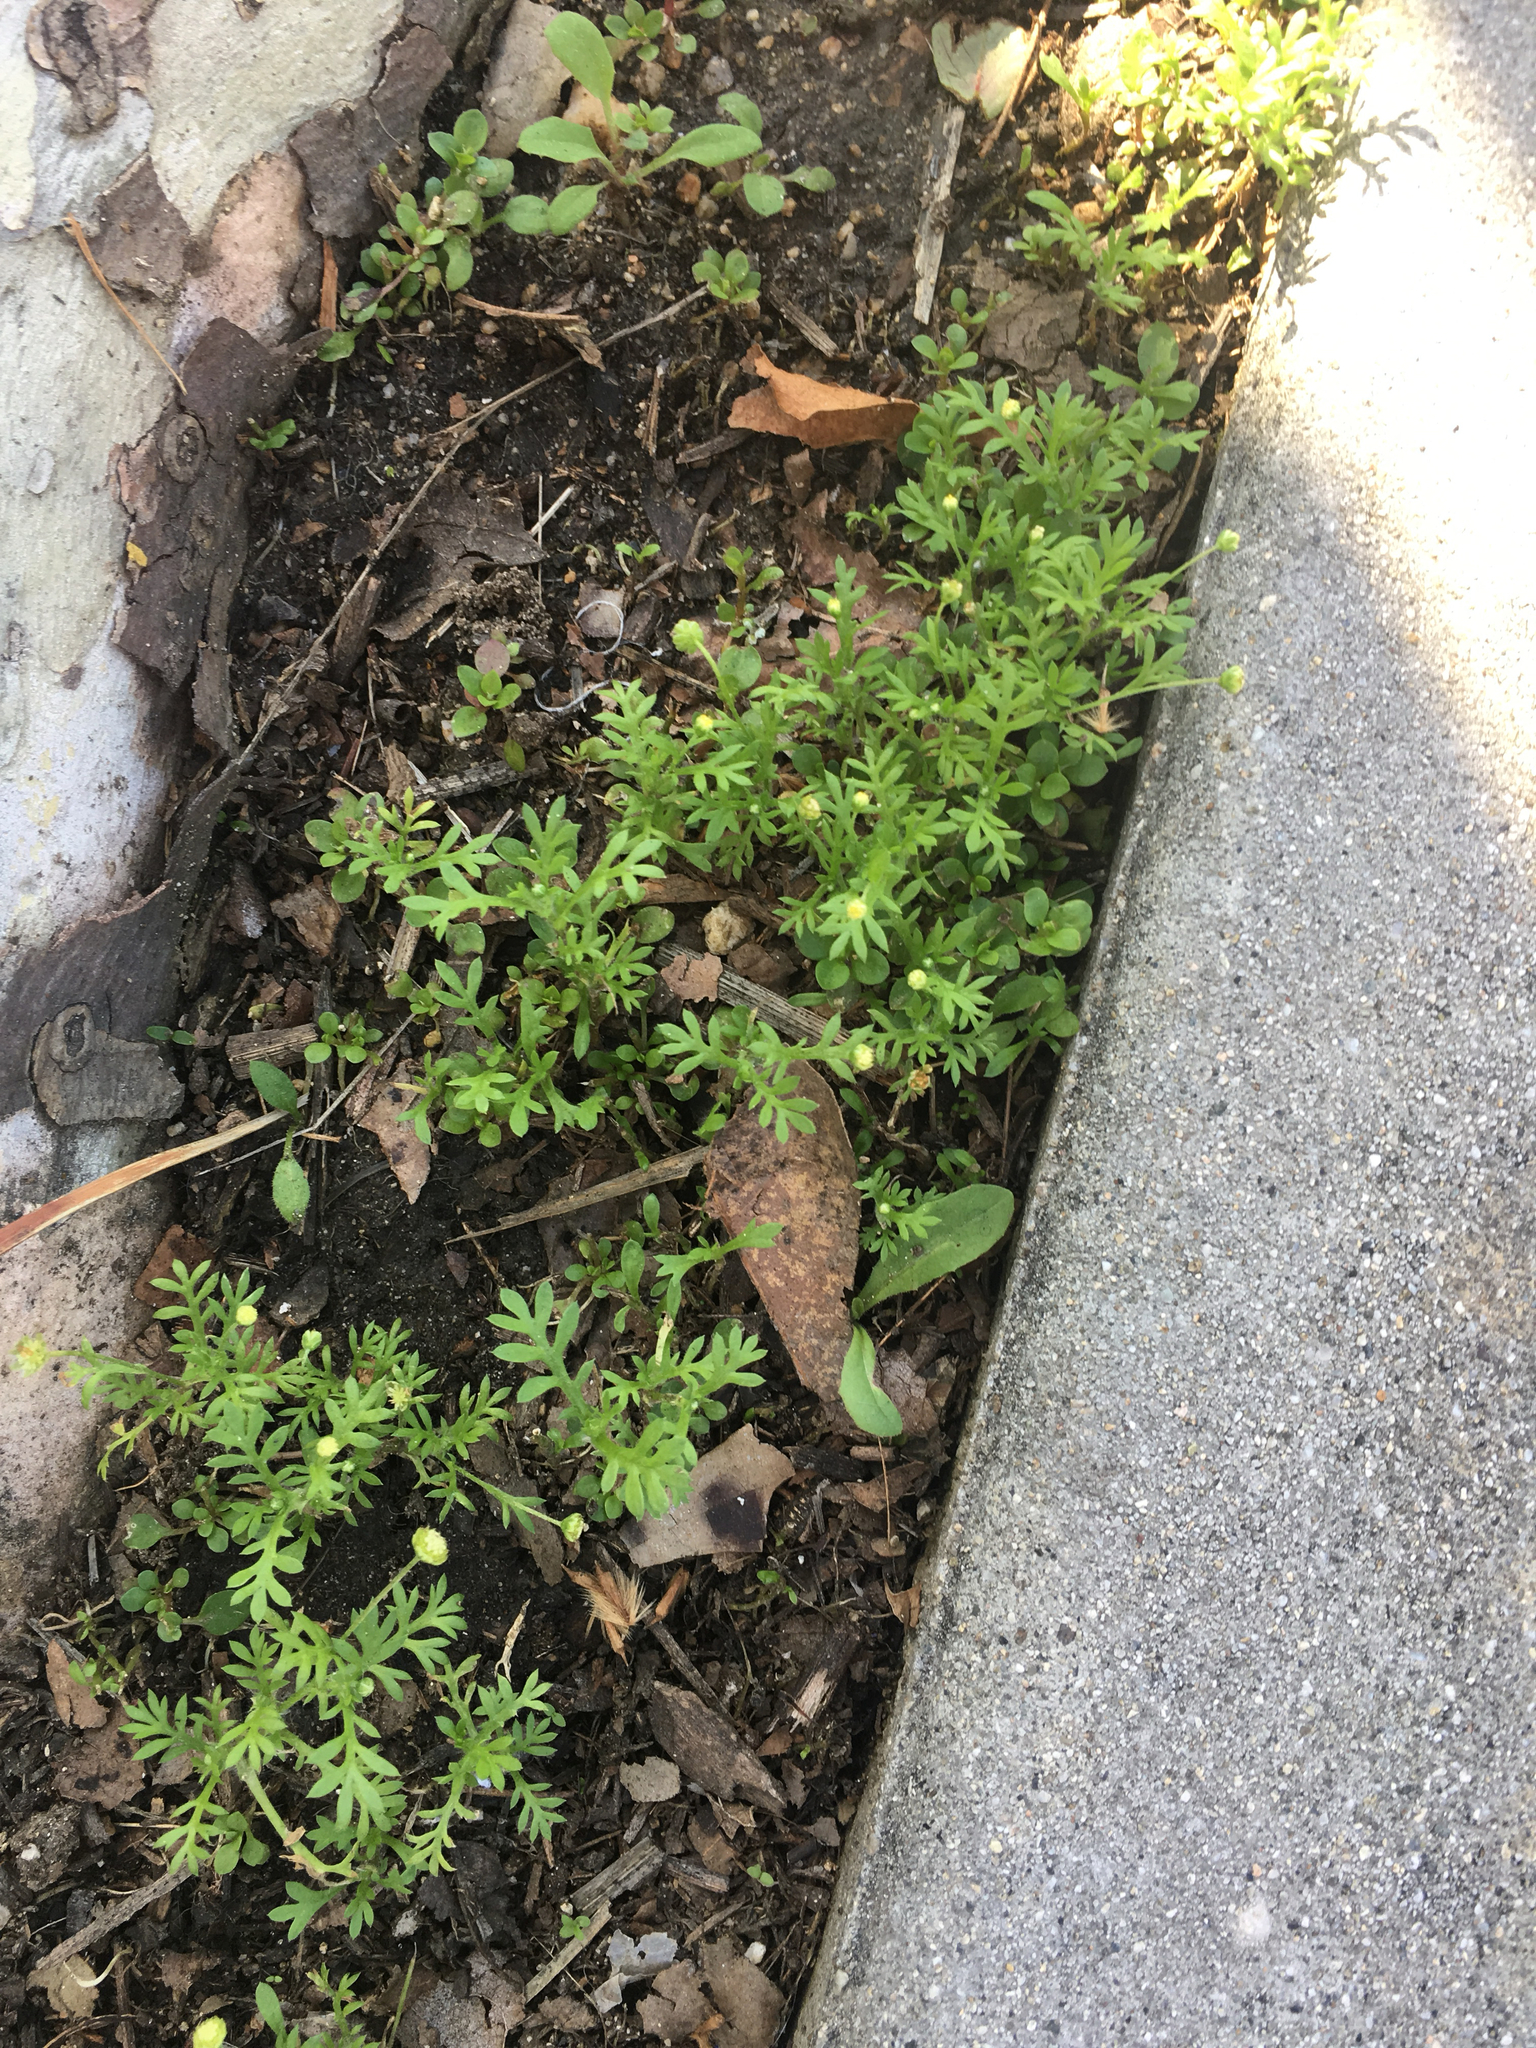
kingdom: Plantae
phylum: Tracheophyta
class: Magnoliopsida
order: Asterales
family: Asteraceae
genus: Cotula
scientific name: Cotula australis
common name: Australian waterbuttons
